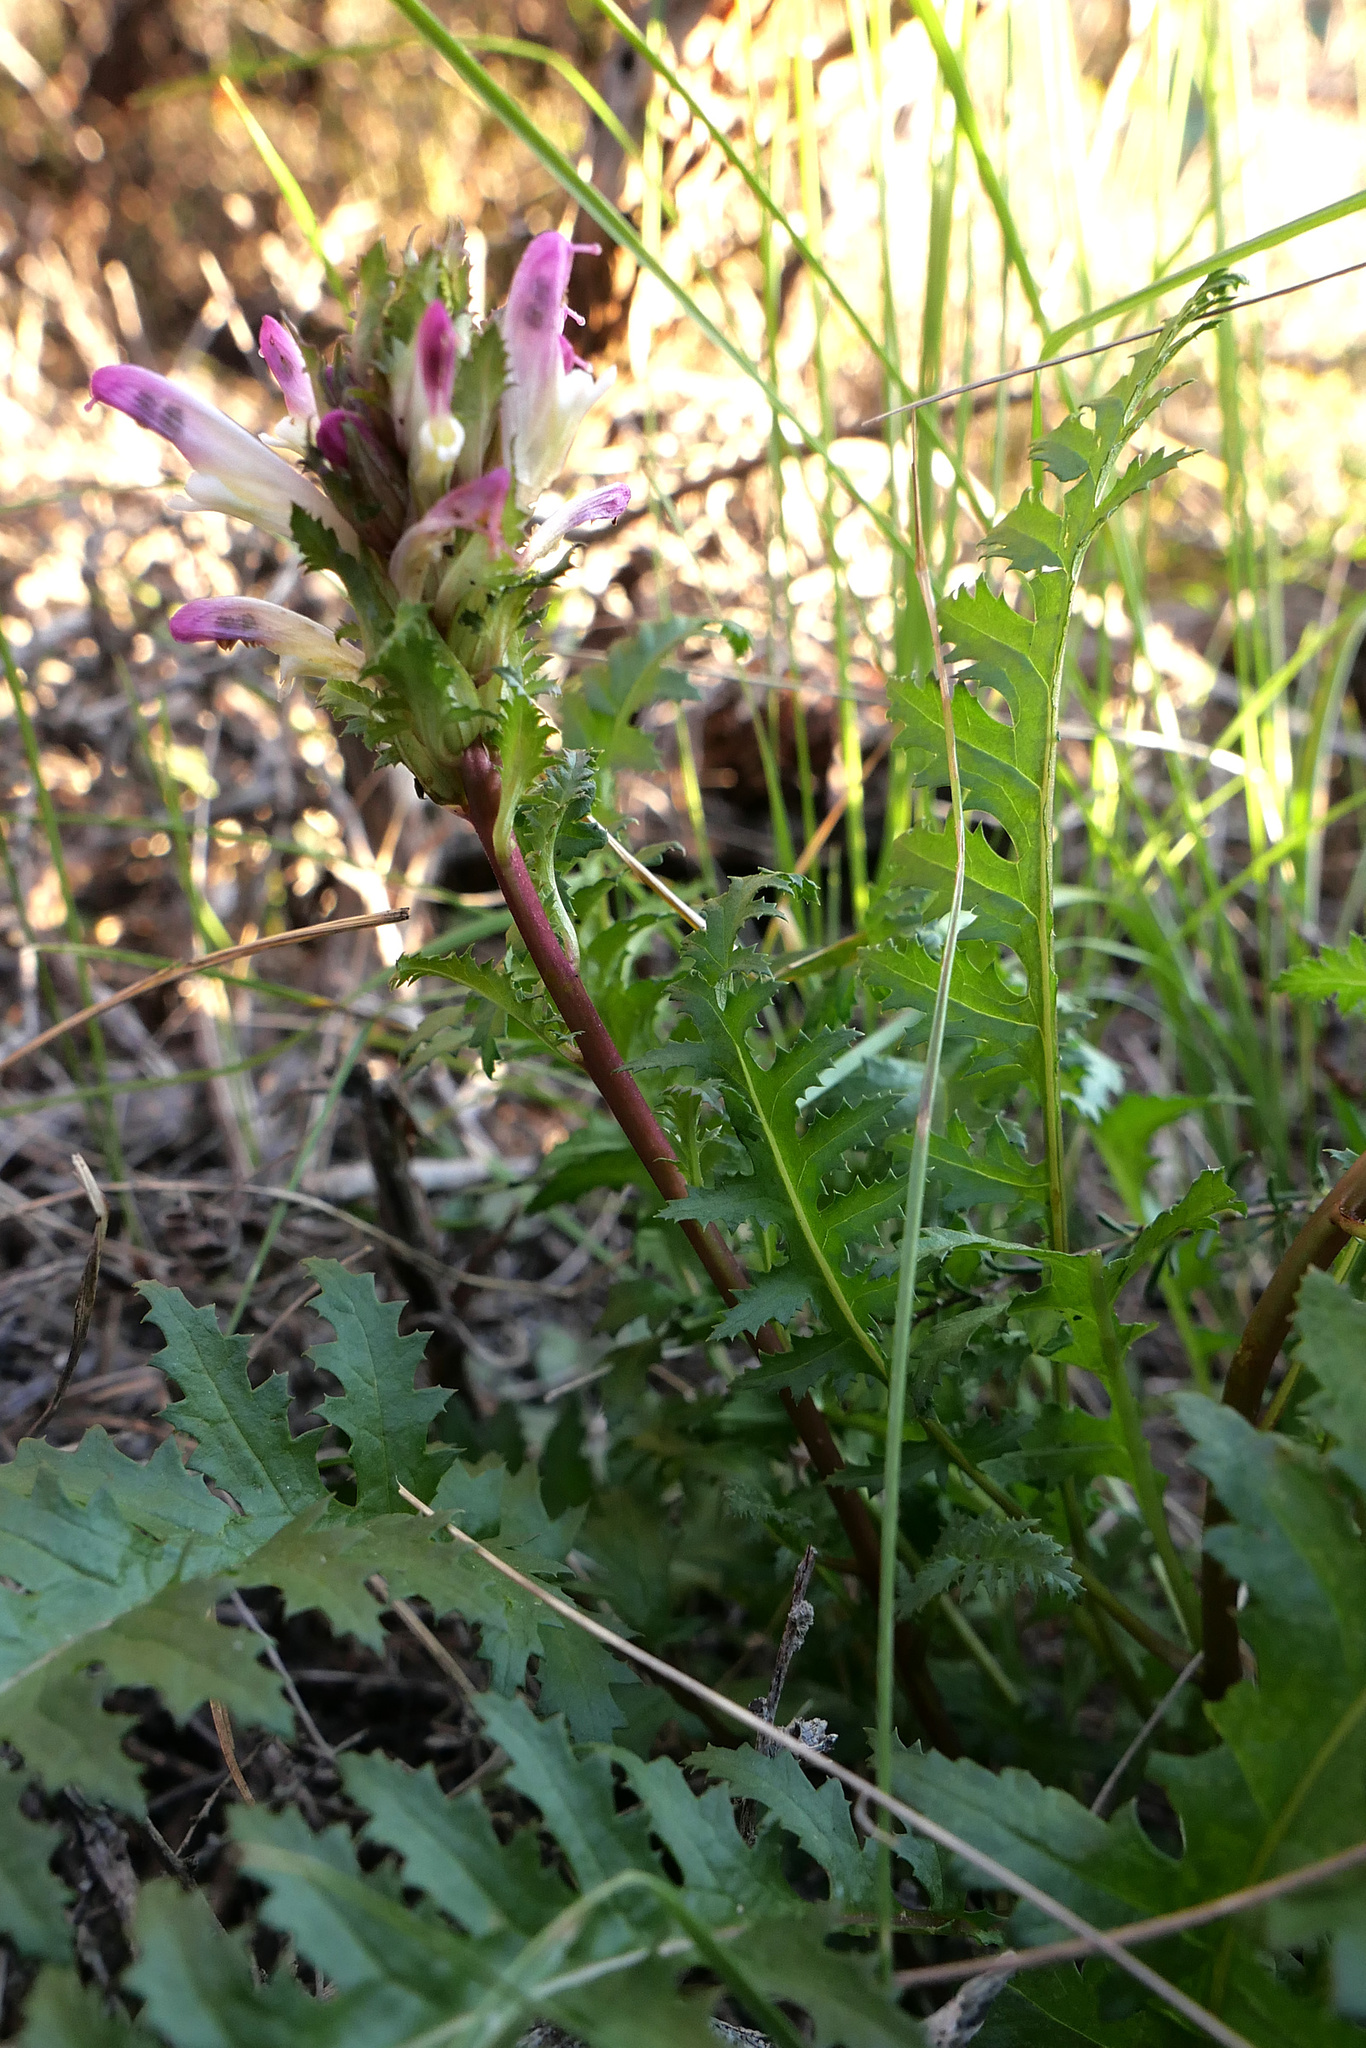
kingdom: Plantae
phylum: Tracheophyta
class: Magnoliopsida
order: Lamiales
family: Orobanchaceae
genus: Pedicularis
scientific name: Pedicularis rigginsiae
